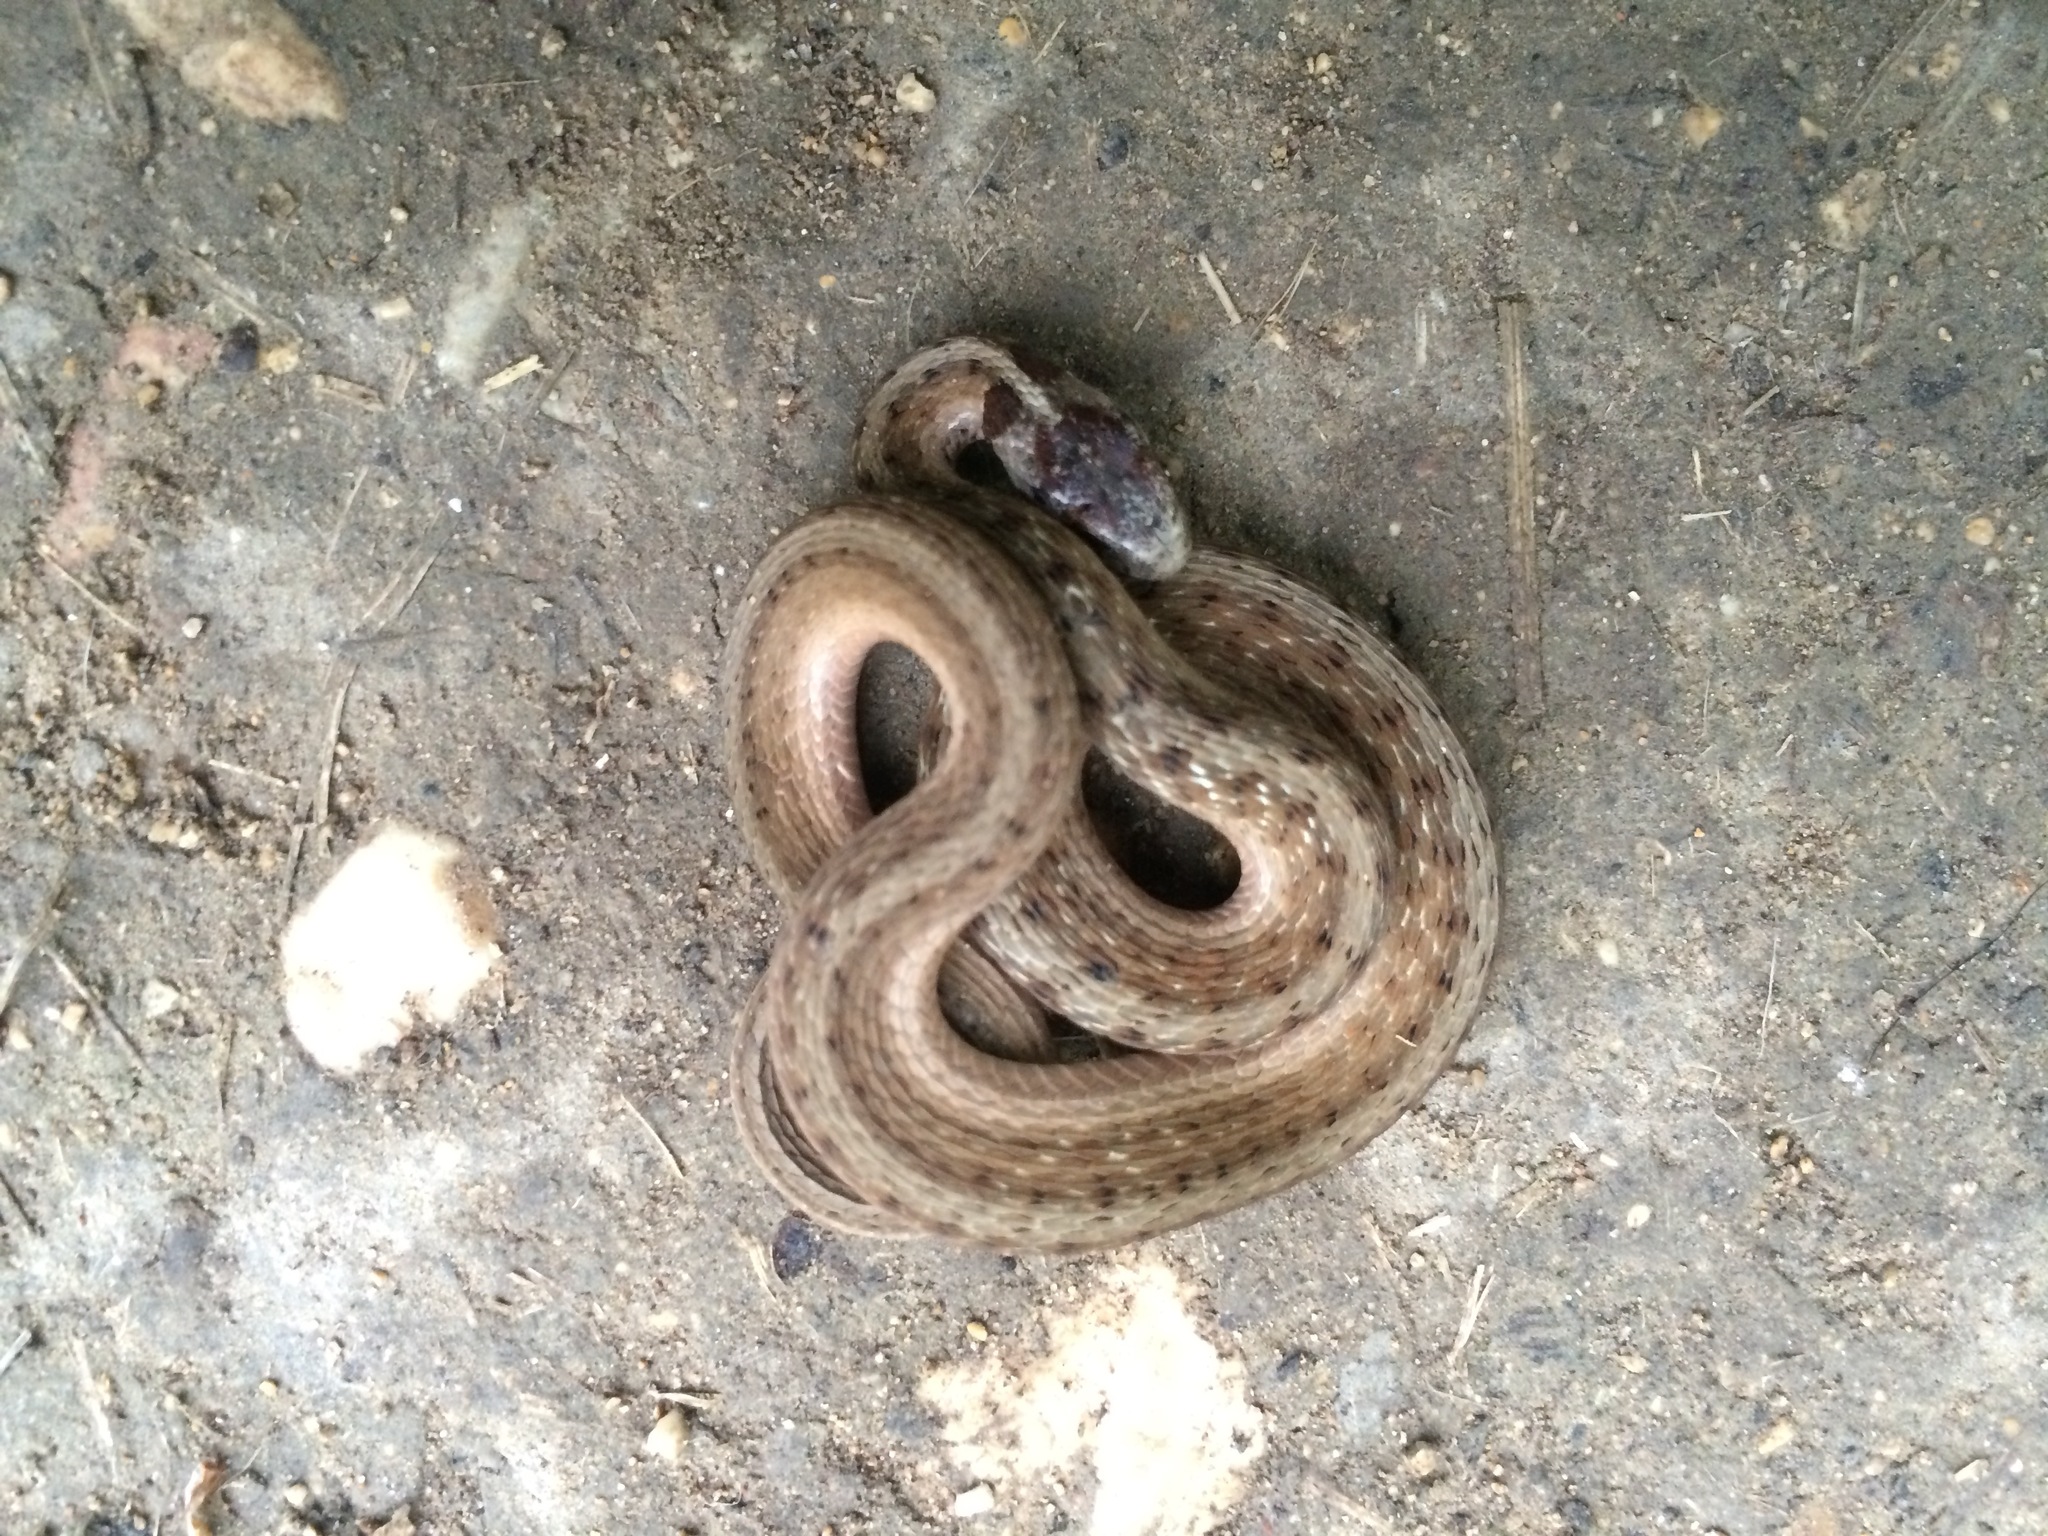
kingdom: Animalia
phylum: Chordata
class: Squamata
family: Colubridae
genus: Storeria
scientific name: Storeria dekayi
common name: (dekay’s) brown snake
